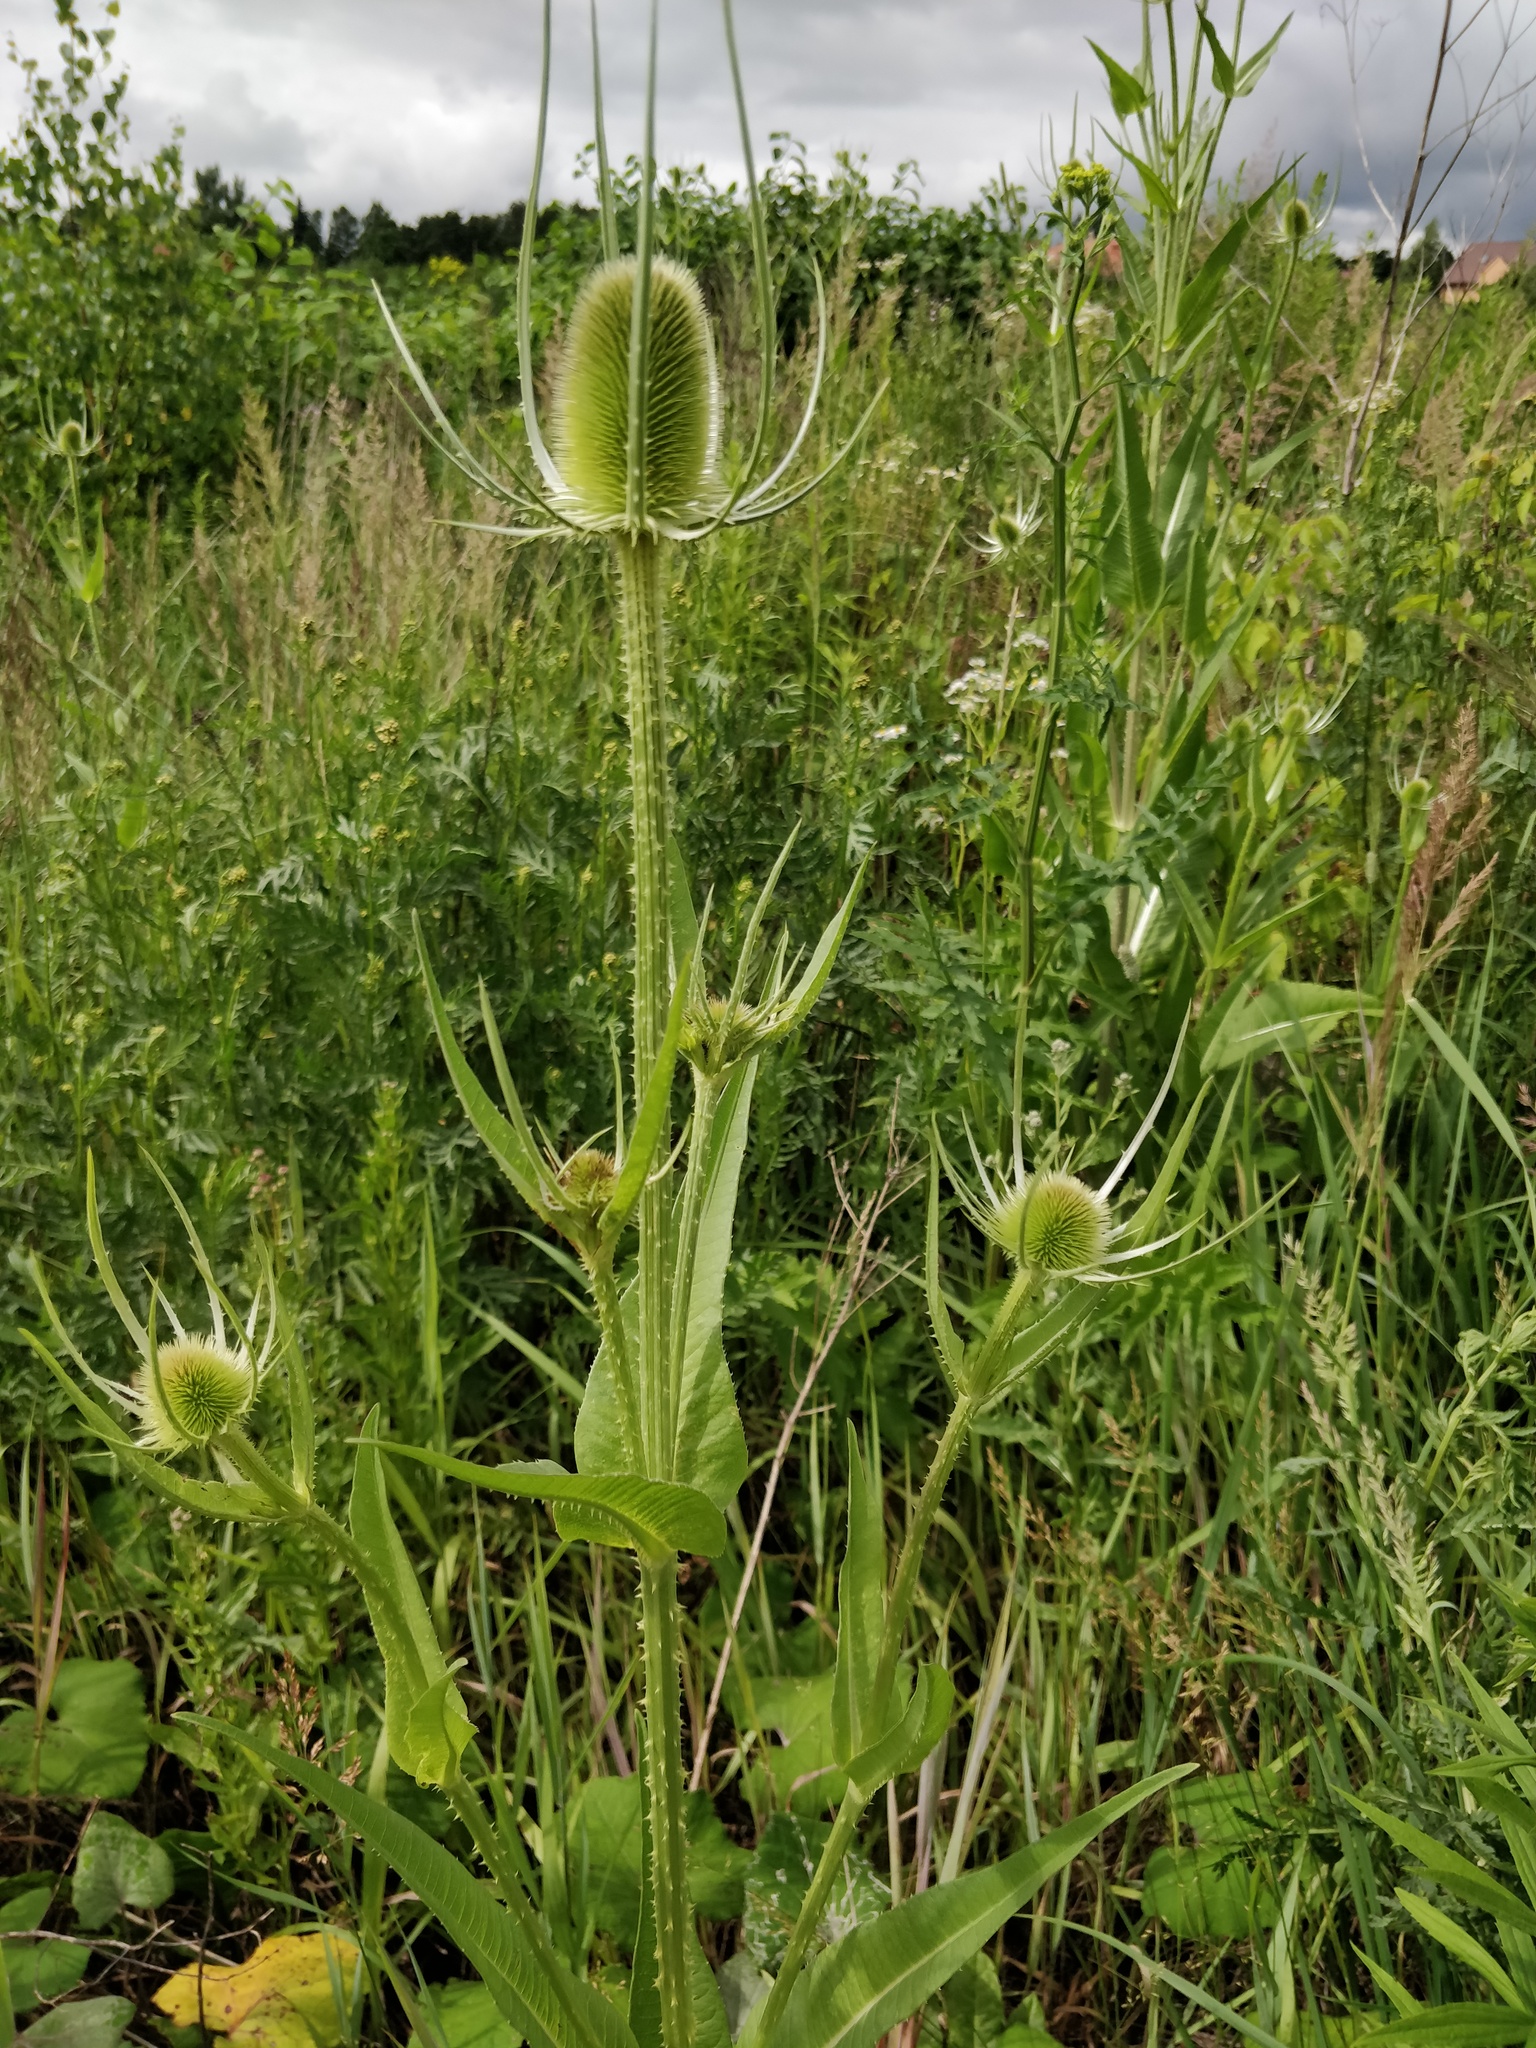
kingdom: Plantae
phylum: Tracheophyta
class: Magnoliopsida
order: Dipsacales
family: Caprifoliaceae
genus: Dipsacus
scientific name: Dipsacus fullonum
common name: Teasel
